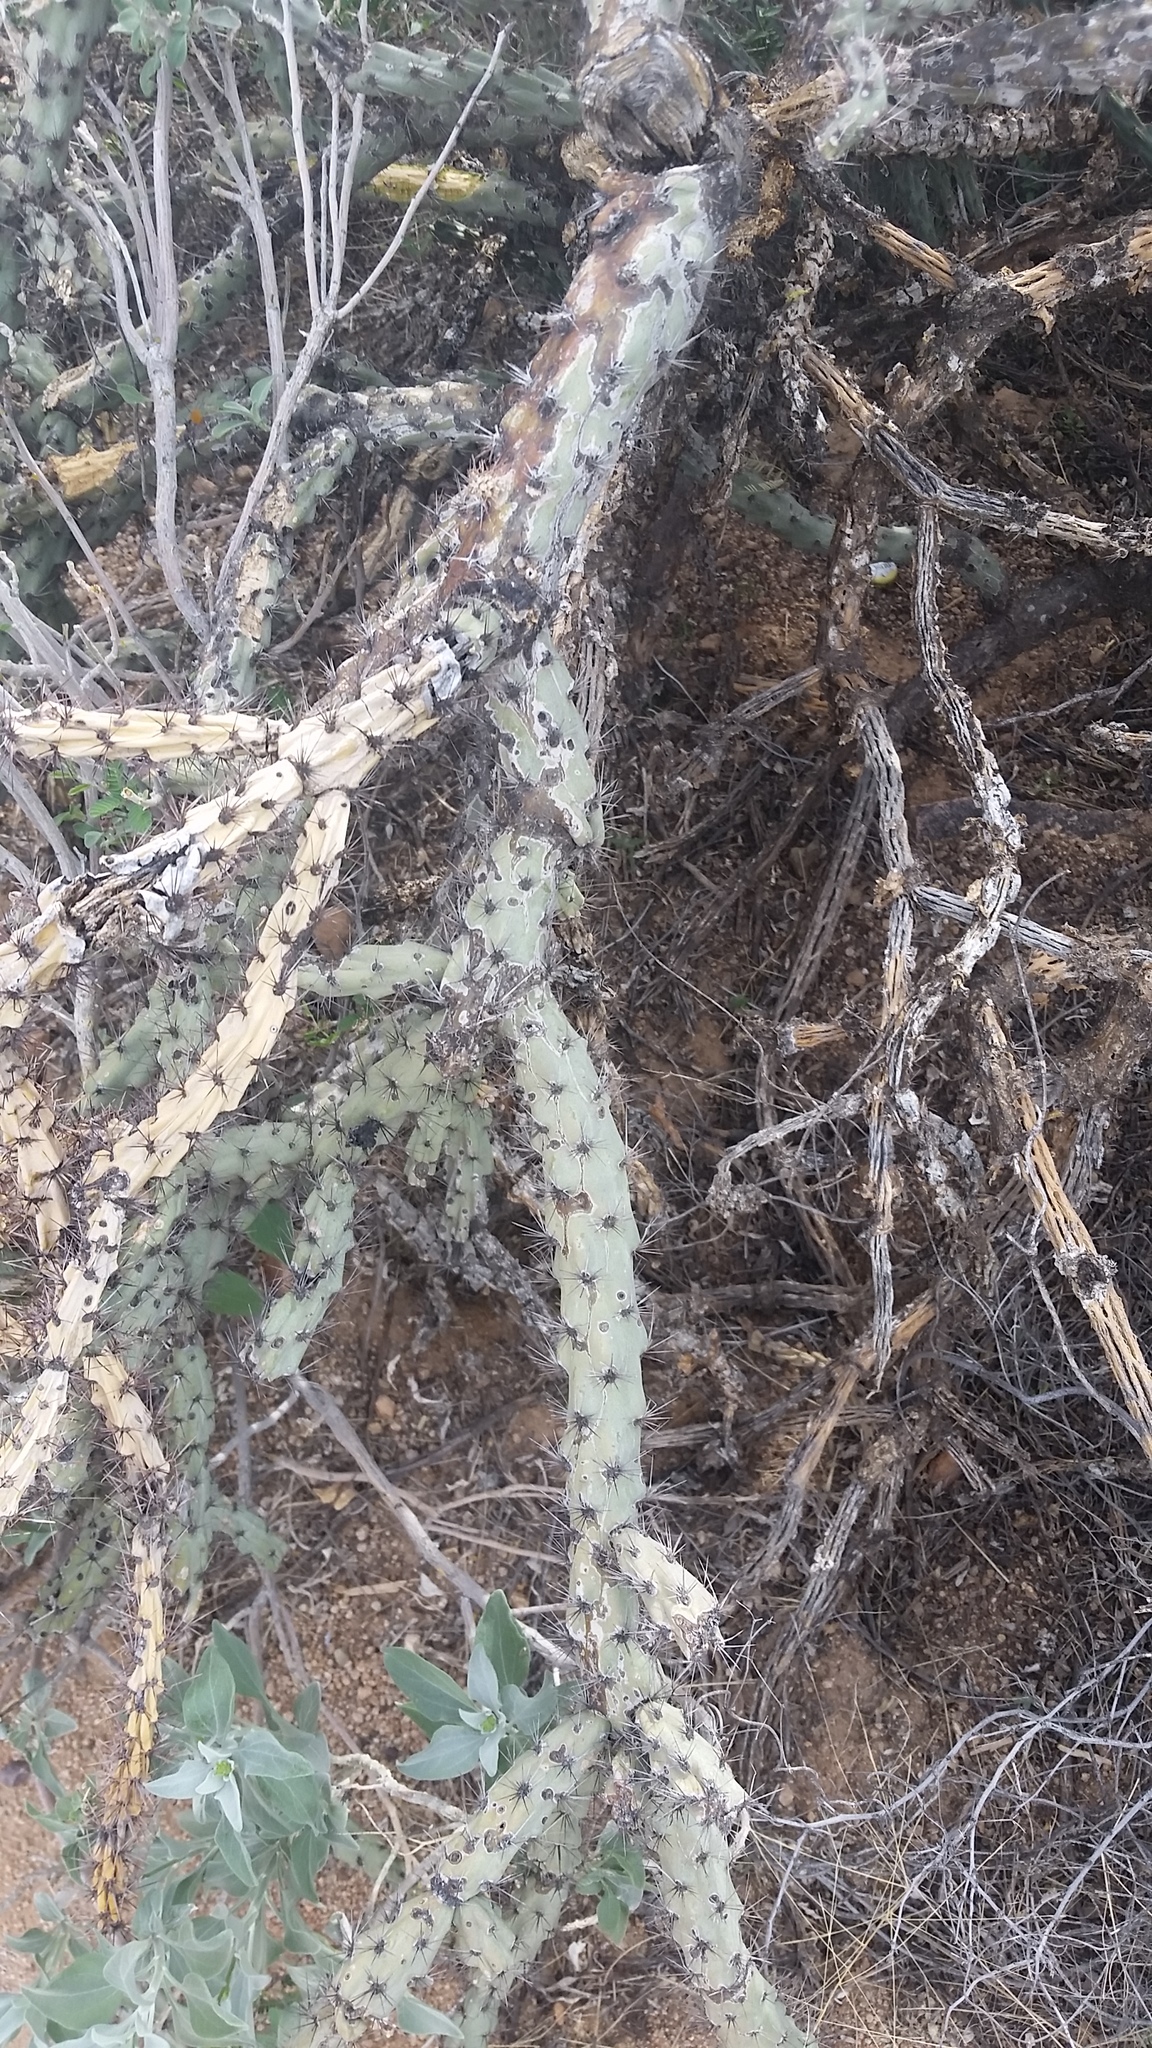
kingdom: Plantae
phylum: Tracheophyta
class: Magnoliopsida
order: Caryophyllales
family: Cactaceae
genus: Cylindropuntia
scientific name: Cylindropuntia thurberi
